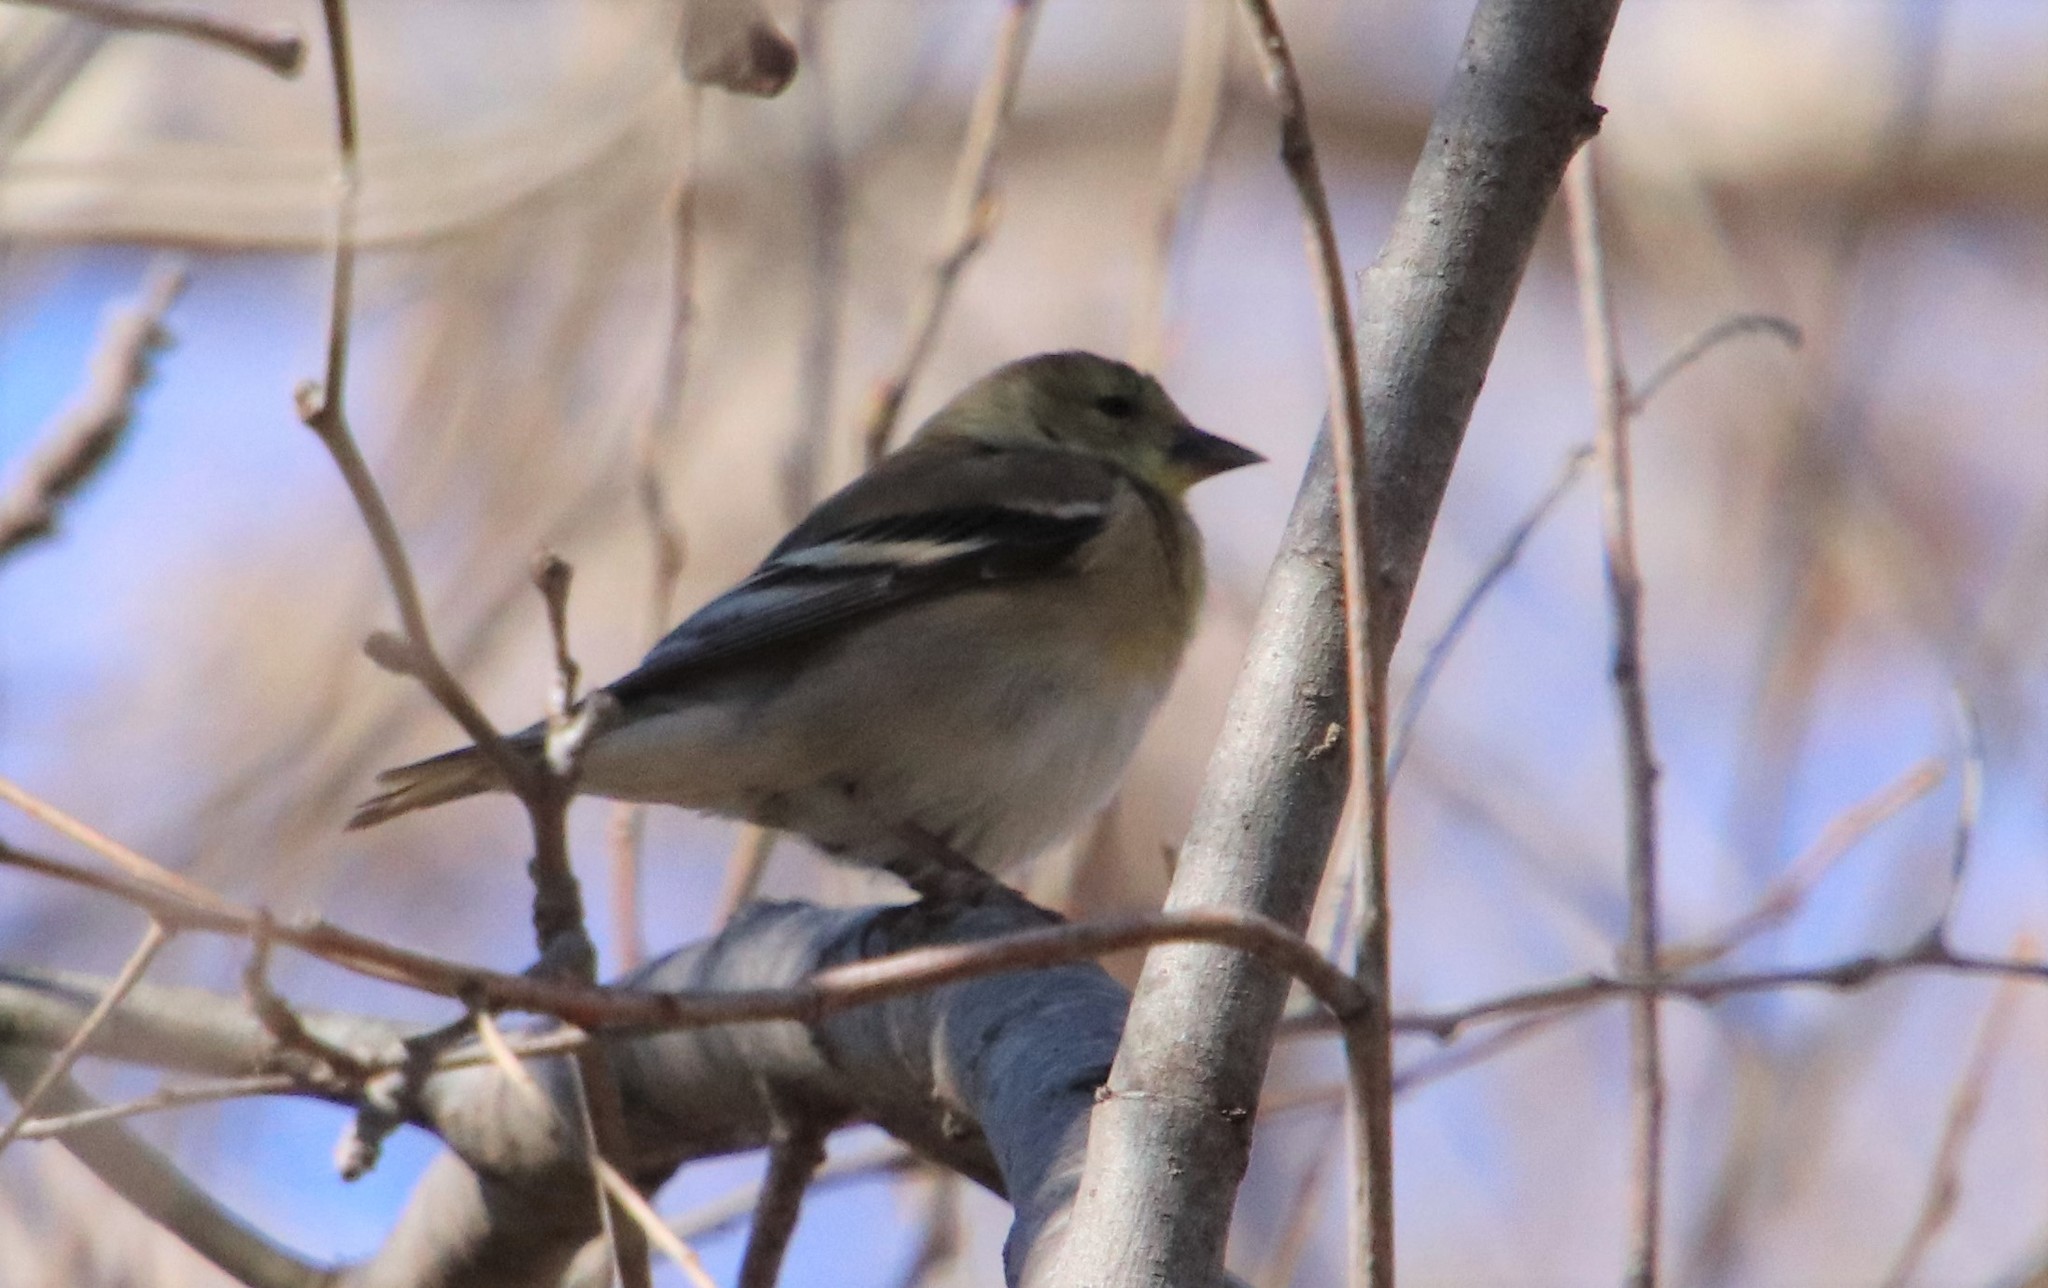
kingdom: Animalia
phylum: Chordata
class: Aves
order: Passeriformes
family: Fringillidae
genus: Spinus
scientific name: Spinus tristis
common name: American goldfinch
